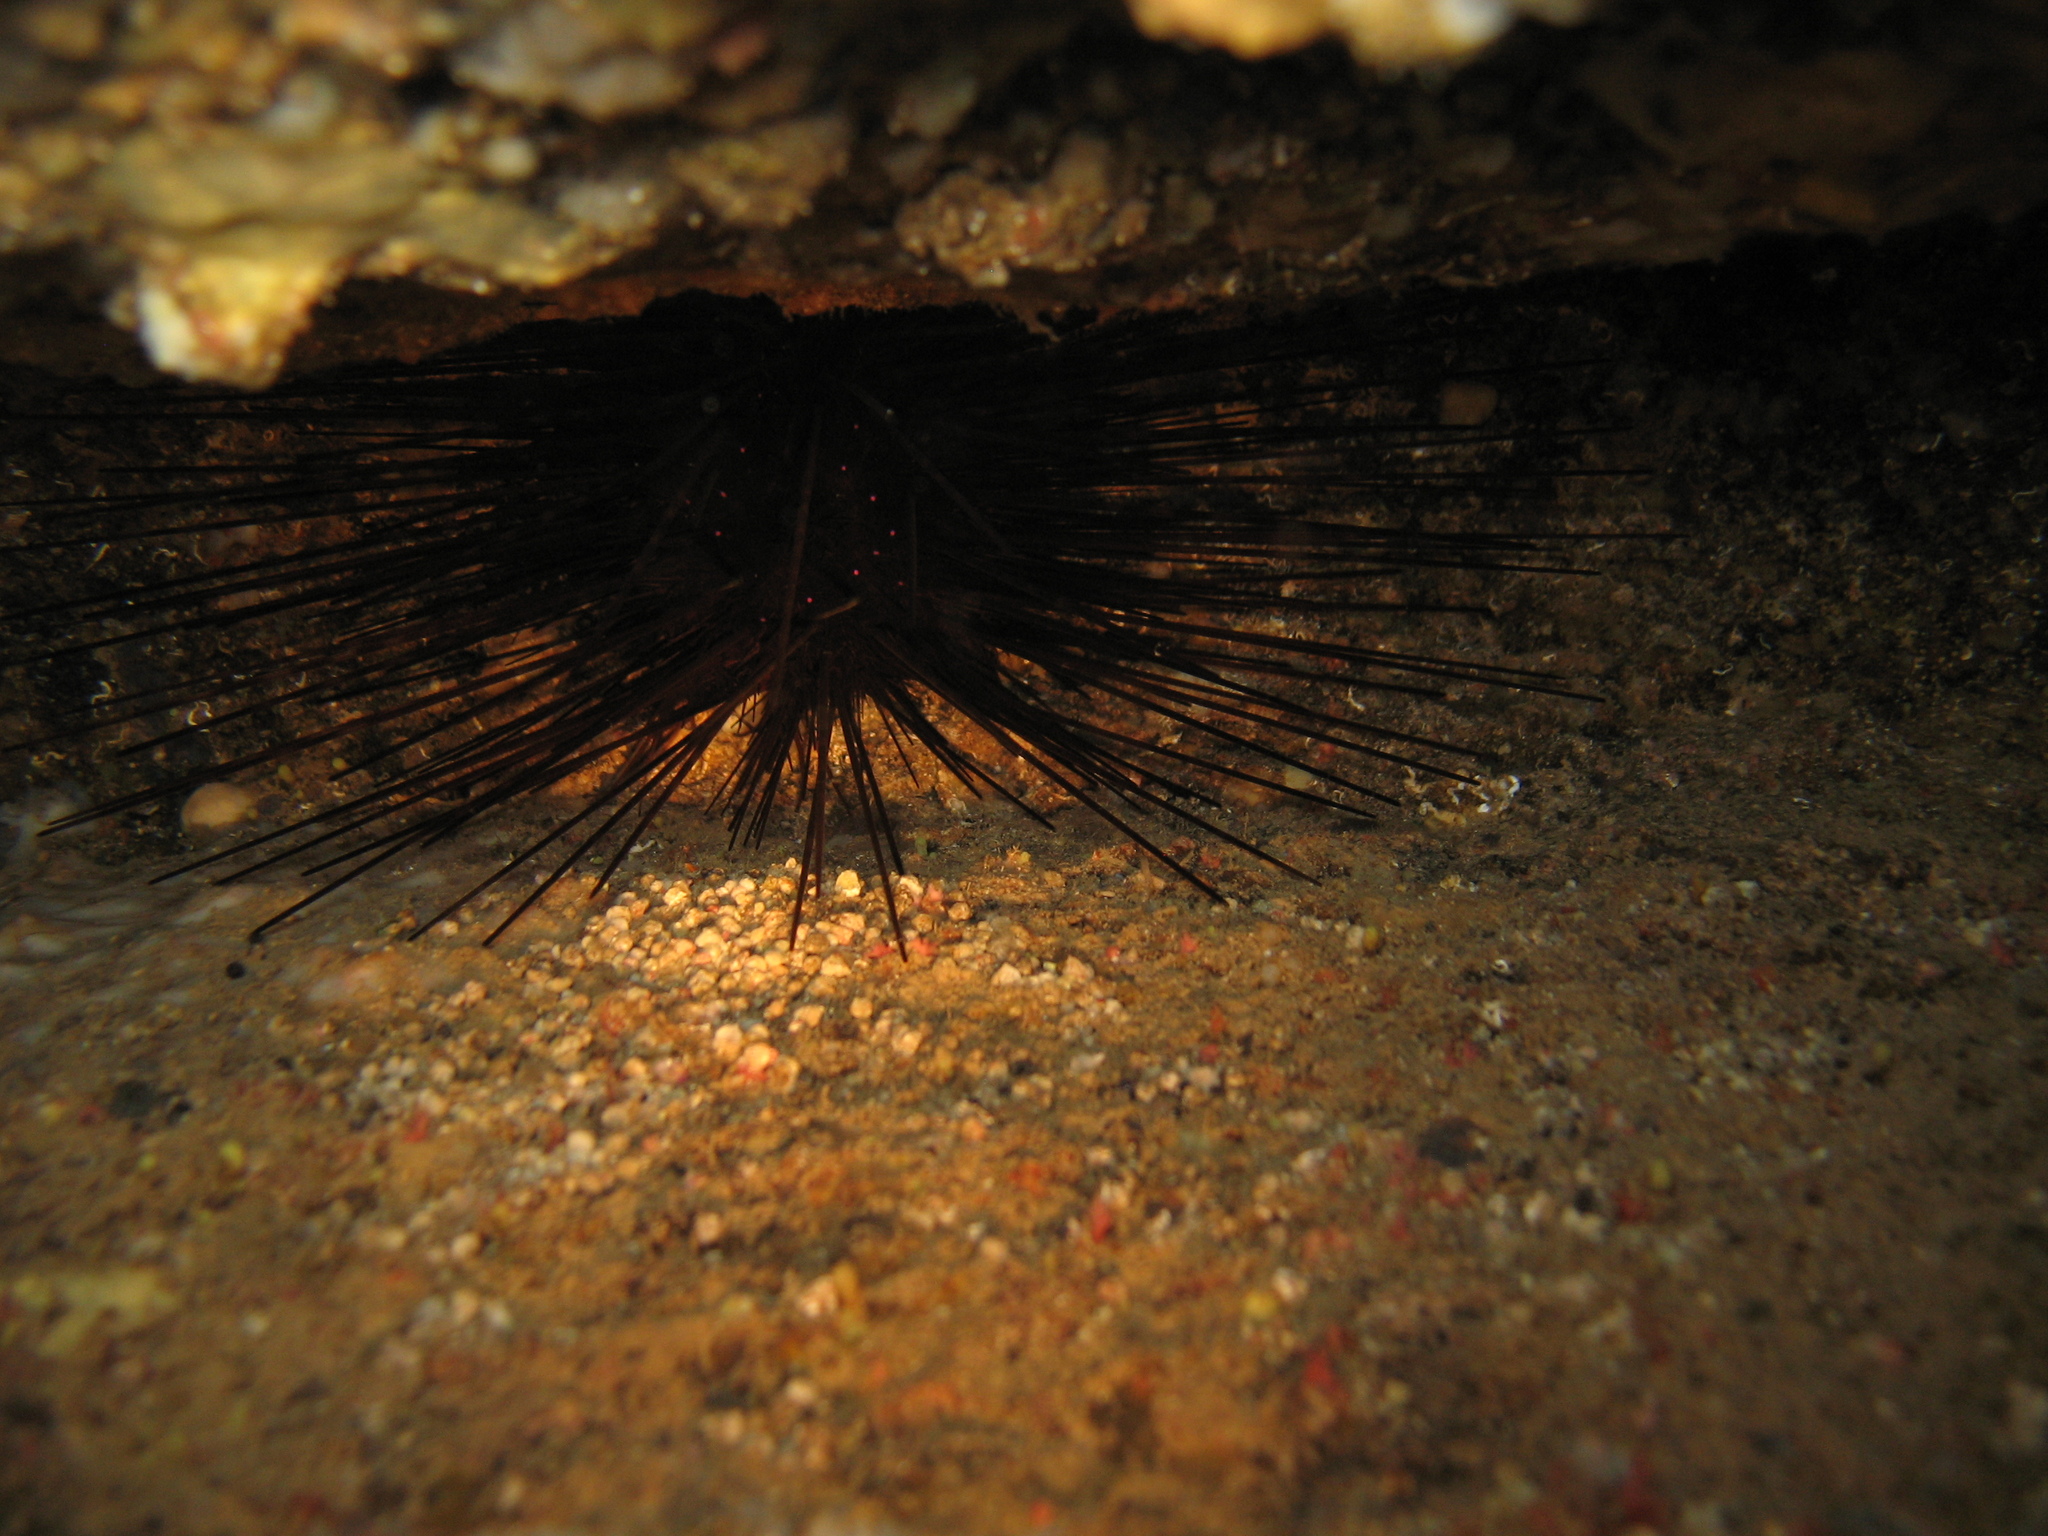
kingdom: Animalia
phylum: Echinodermata
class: Echinoidea
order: Diadematoida
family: Diadematidae
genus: Centrostephanus
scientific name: Centrostephanus longispinus
